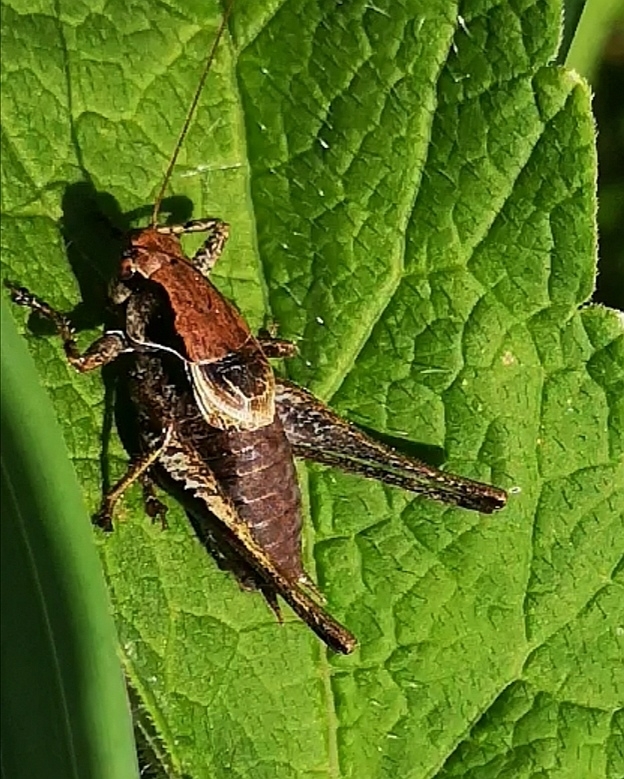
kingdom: Animalia
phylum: Arthropoda
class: Insecta
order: Orthoptera
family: Tettigoniidae
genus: Pholidoptera
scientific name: Pholidoptera griseoaptera
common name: Dark bush-cricket
